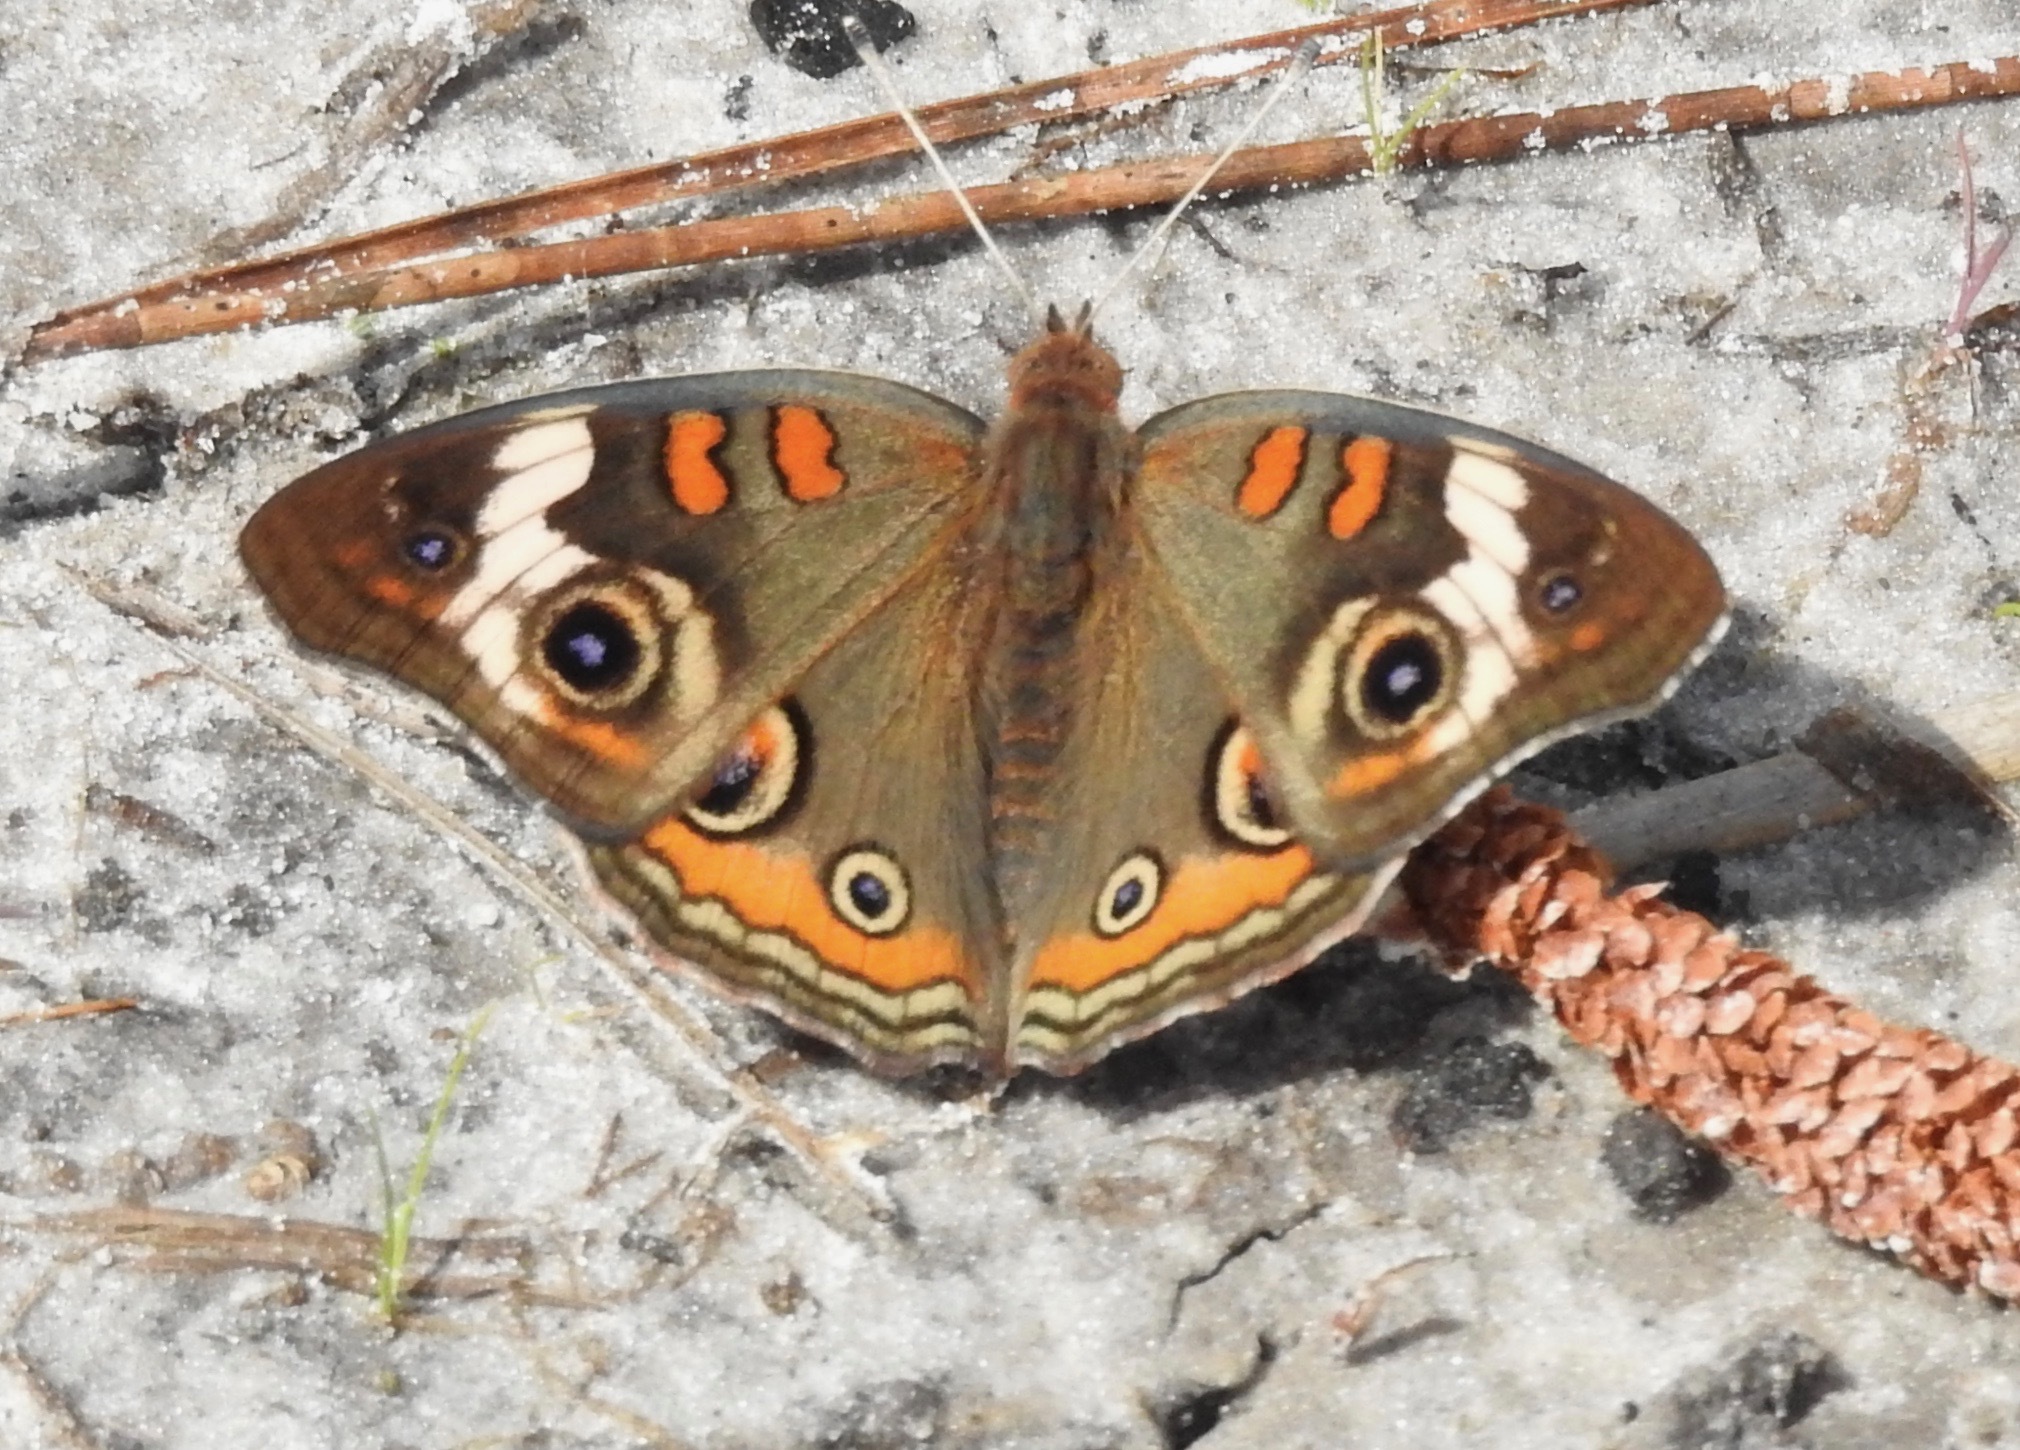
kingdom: Animalia
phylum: Arthropoda
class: Insecta
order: Lepidoptera
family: Nymphalidae
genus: Junonia
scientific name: Junonia coenia
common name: Common buckeye
